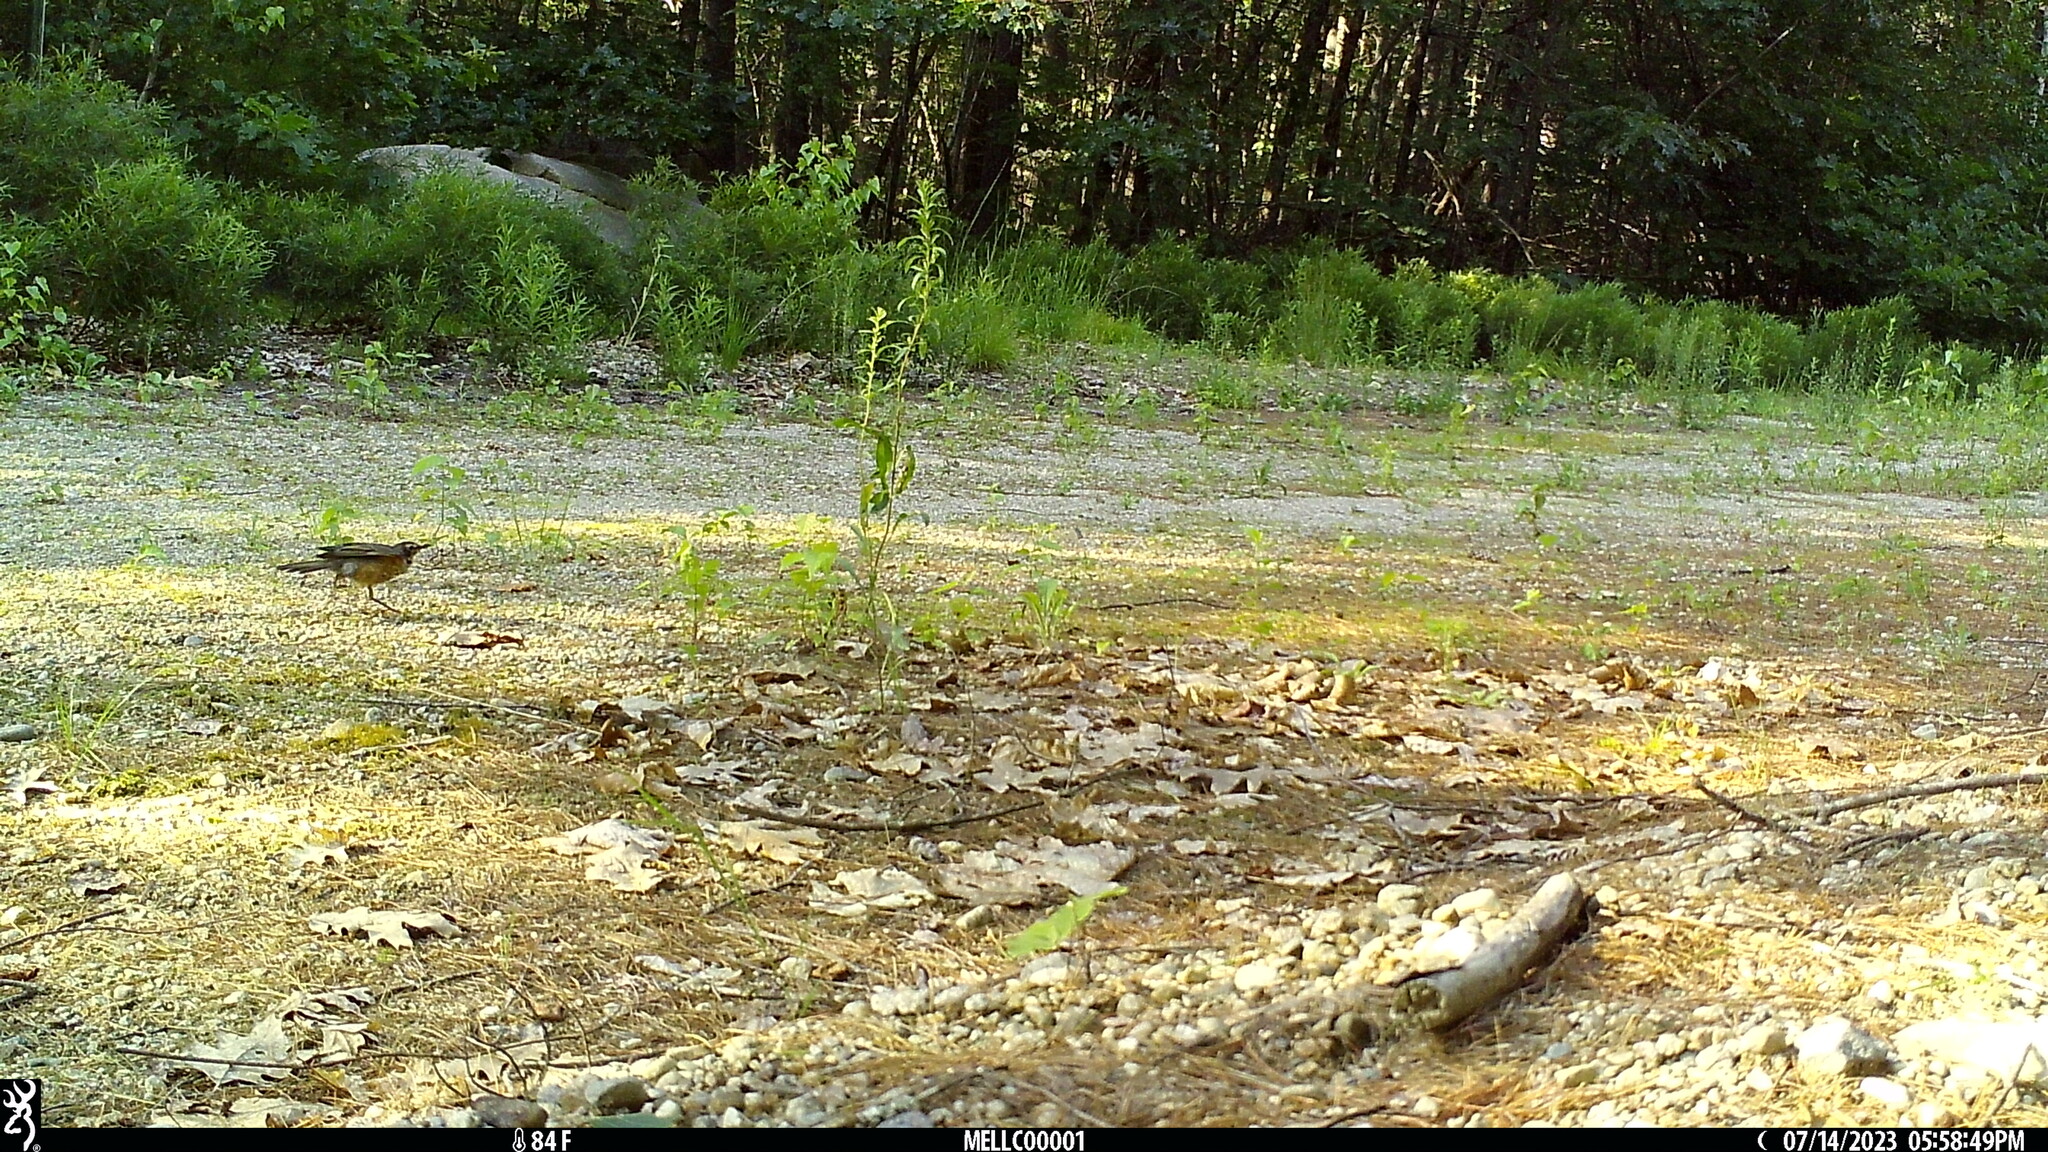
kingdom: Animalia
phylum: Chordata
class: Aves
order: Passeriformes
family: Turdidae
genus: Turdus
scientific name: Turdus migratorius
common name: American robin
